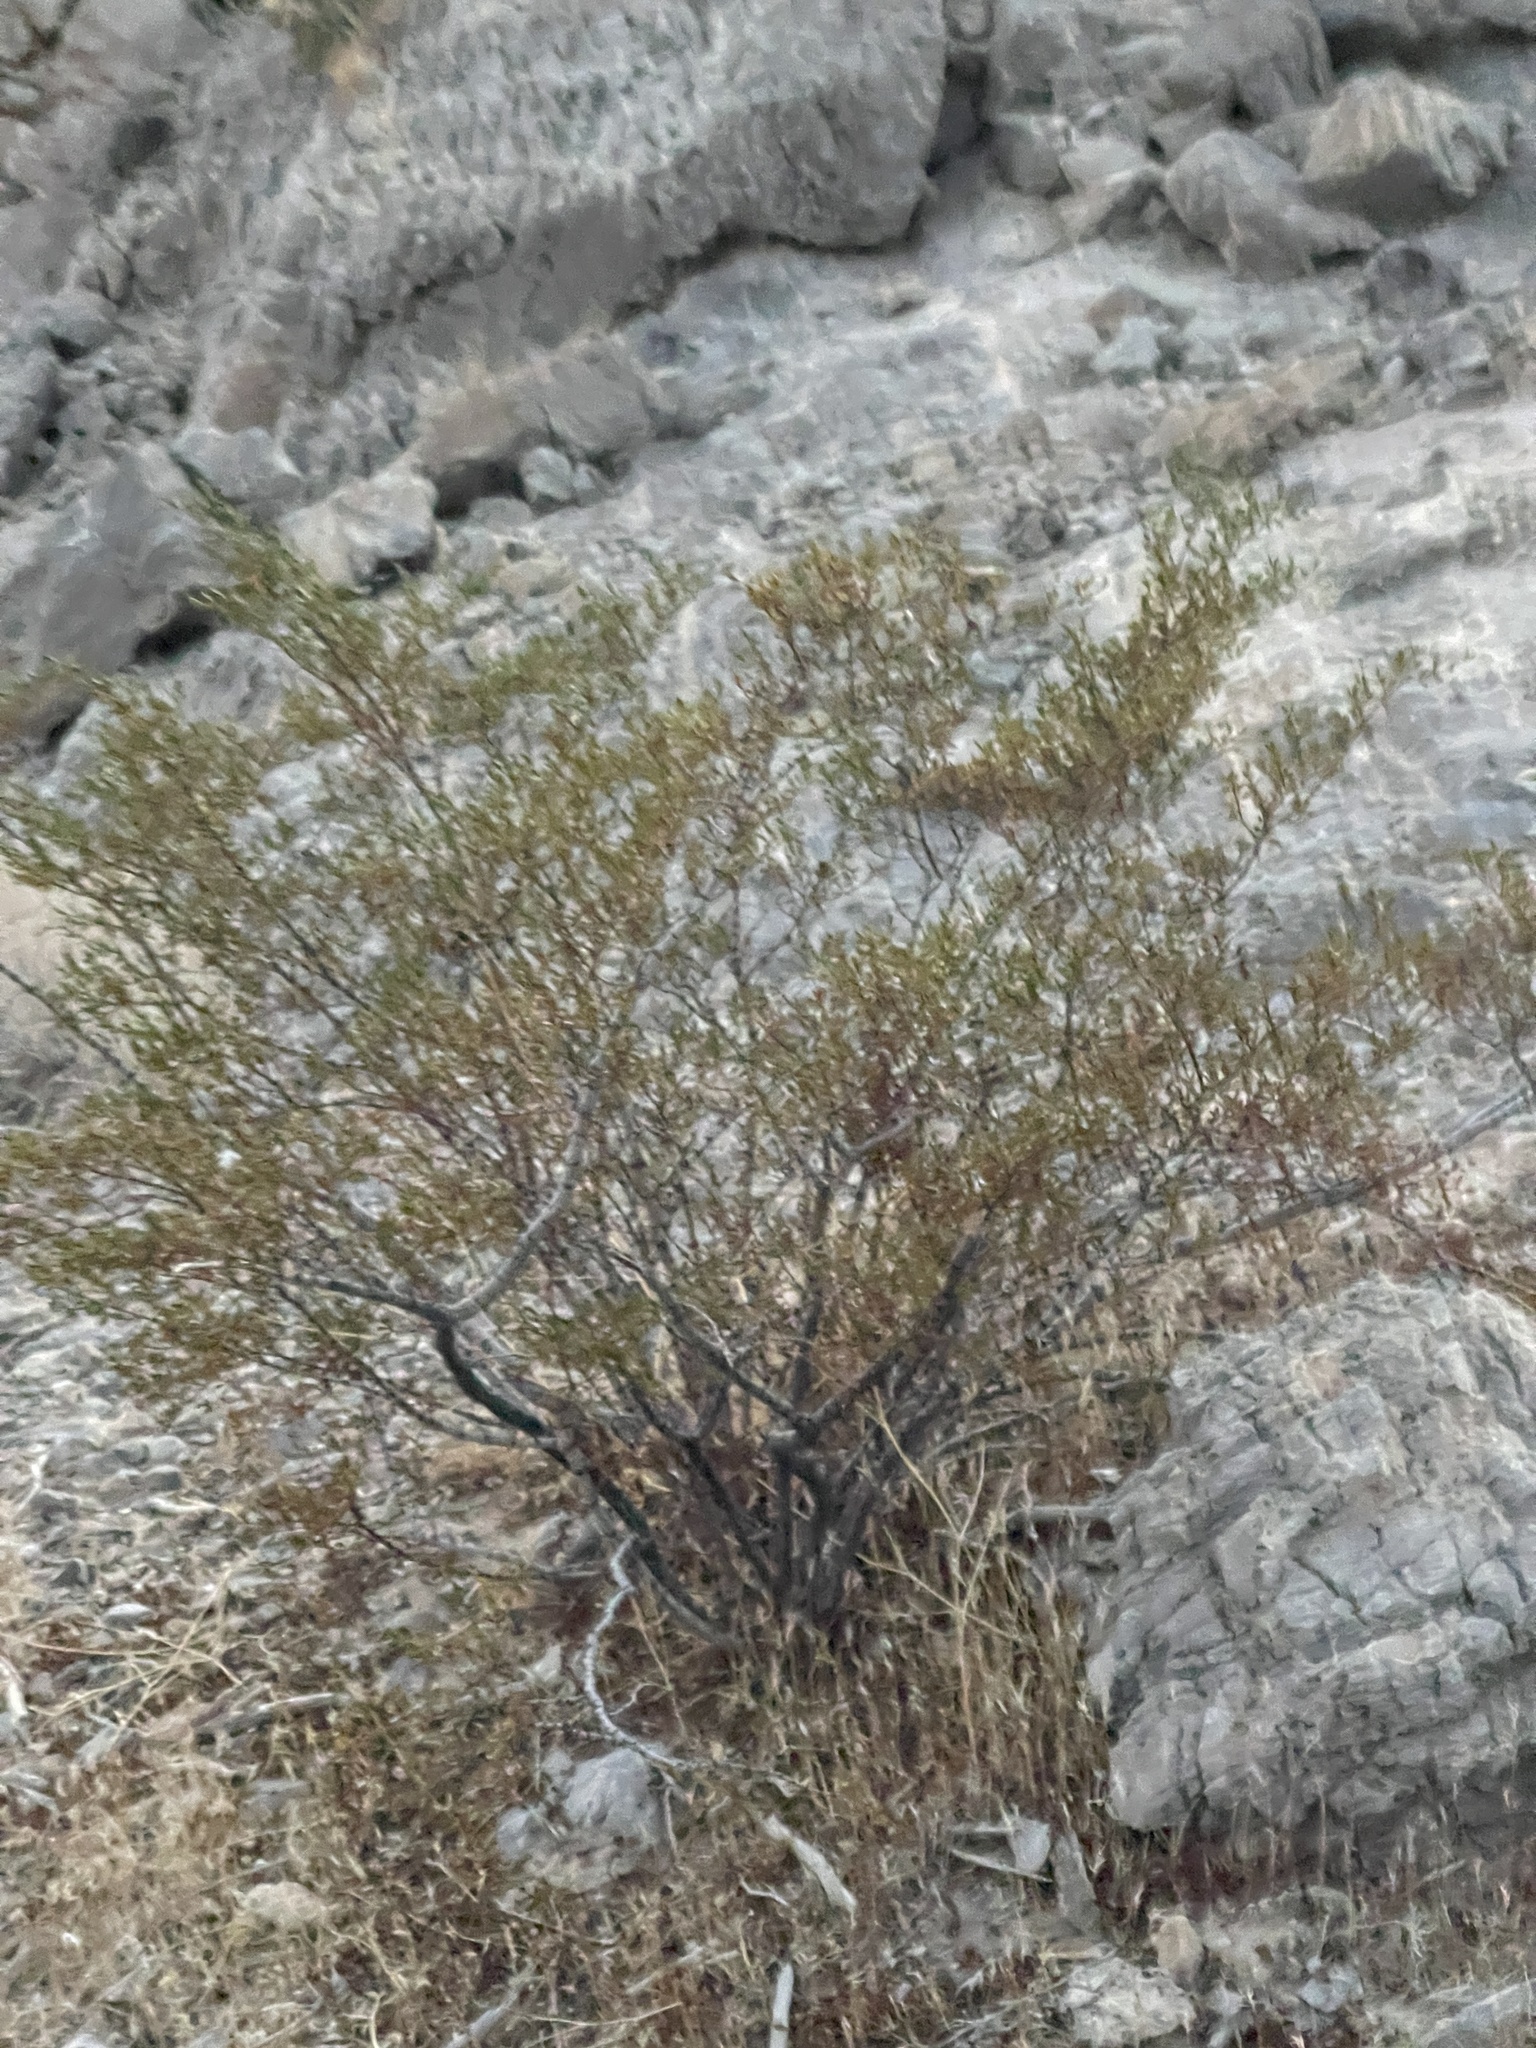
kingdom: Plantae
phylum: Tracheophyta
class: Magnoliopsida
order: Zygophyllales
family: Zygophyllaceae
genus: Larrea
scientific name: Larrea tridentata
